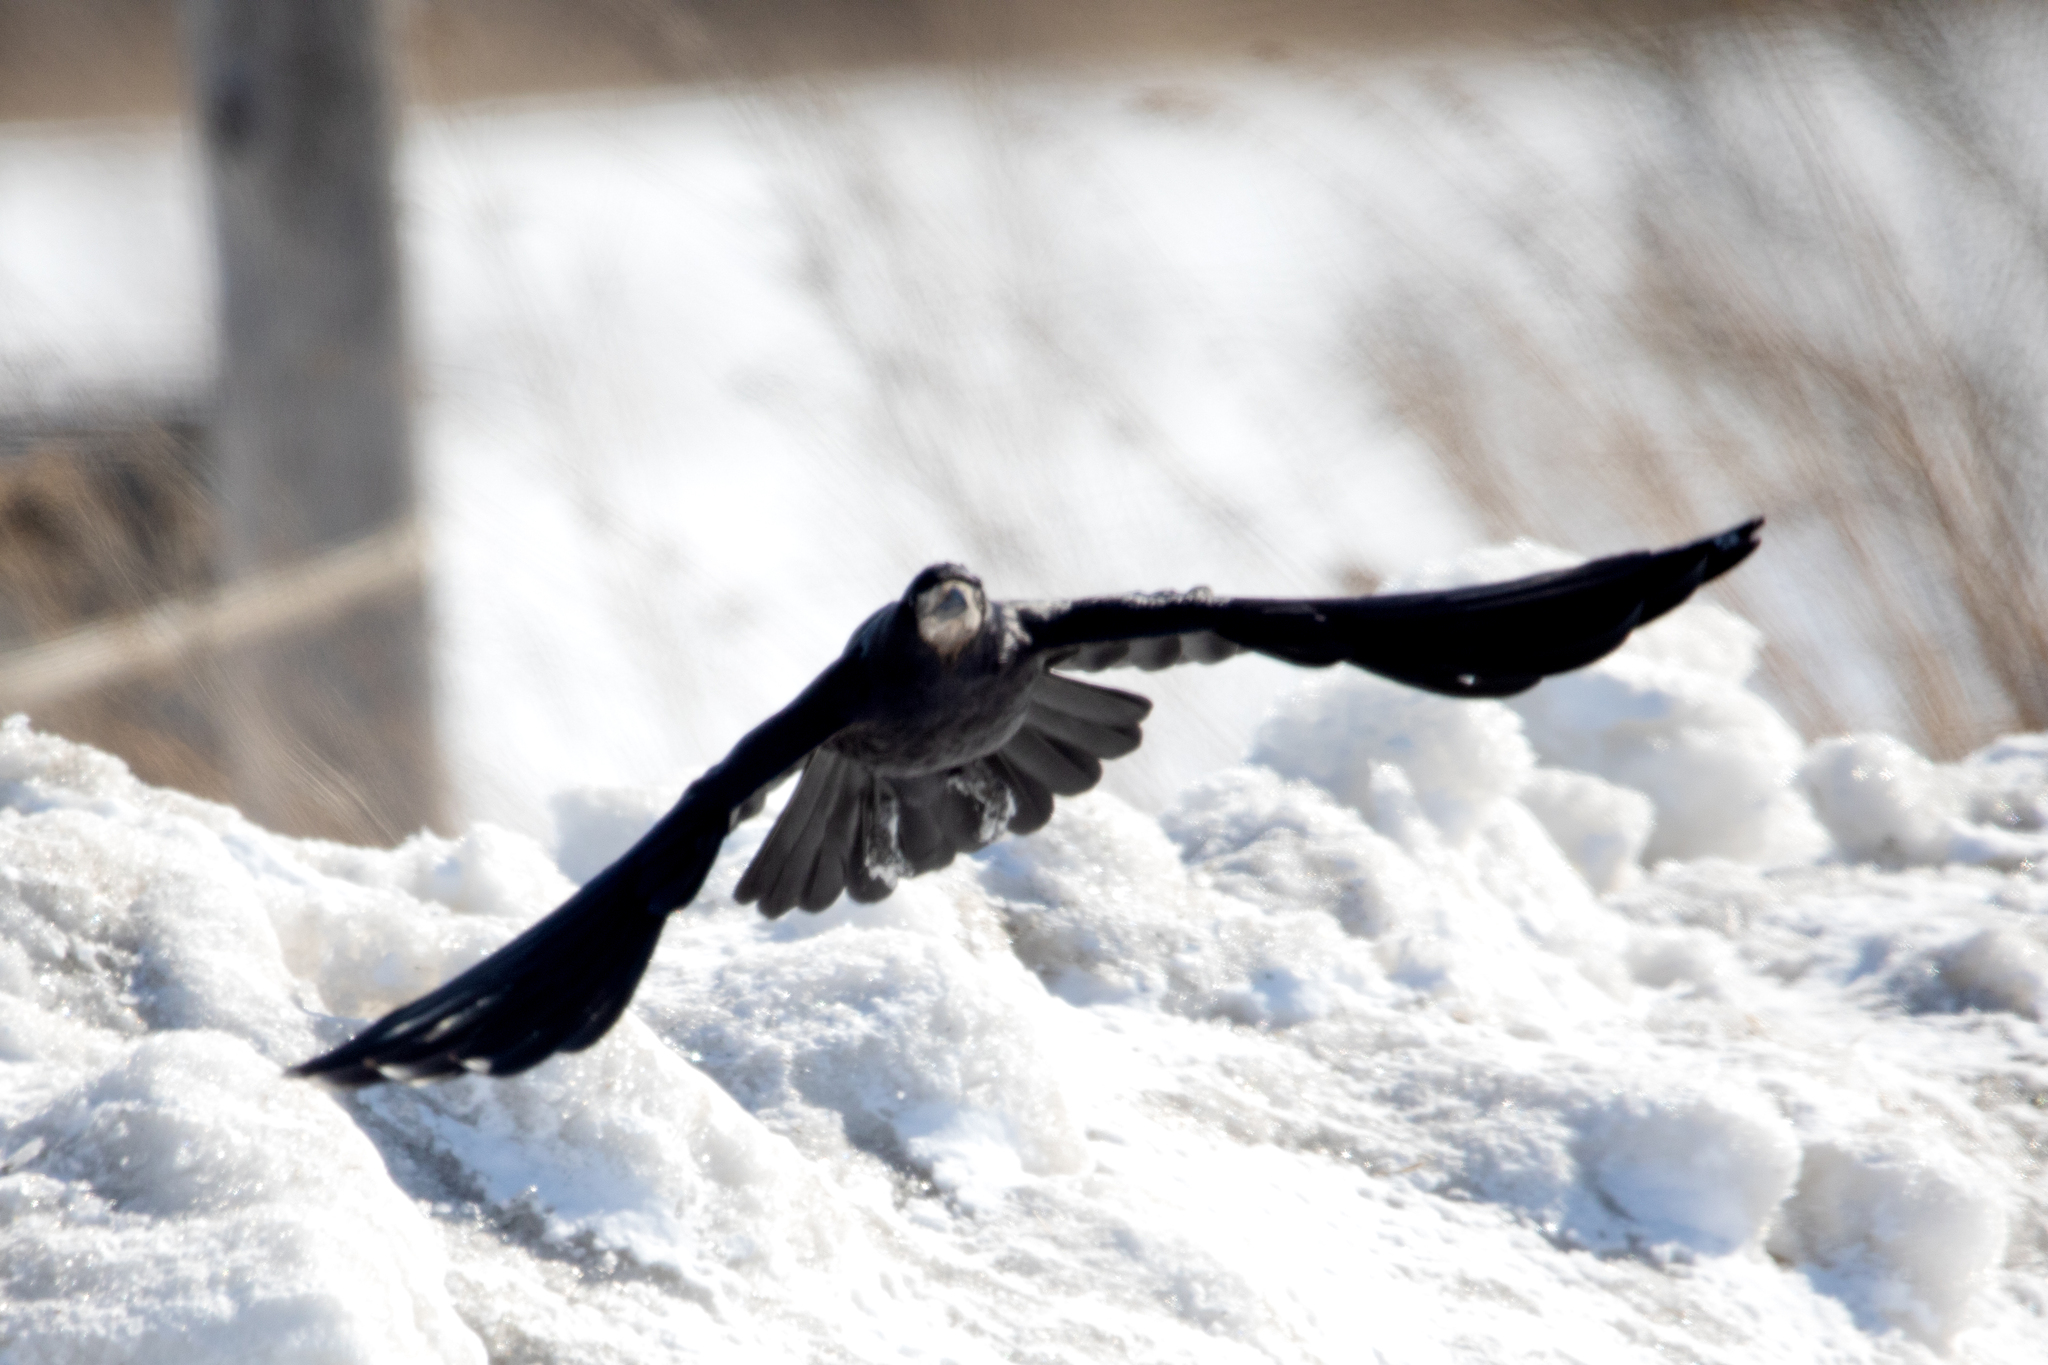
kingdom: Animalia
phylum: Chordata
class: Aves
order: Passeriformes
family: Corvidae
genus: Corvus
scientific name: Corvus frugilegus
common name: Rook
